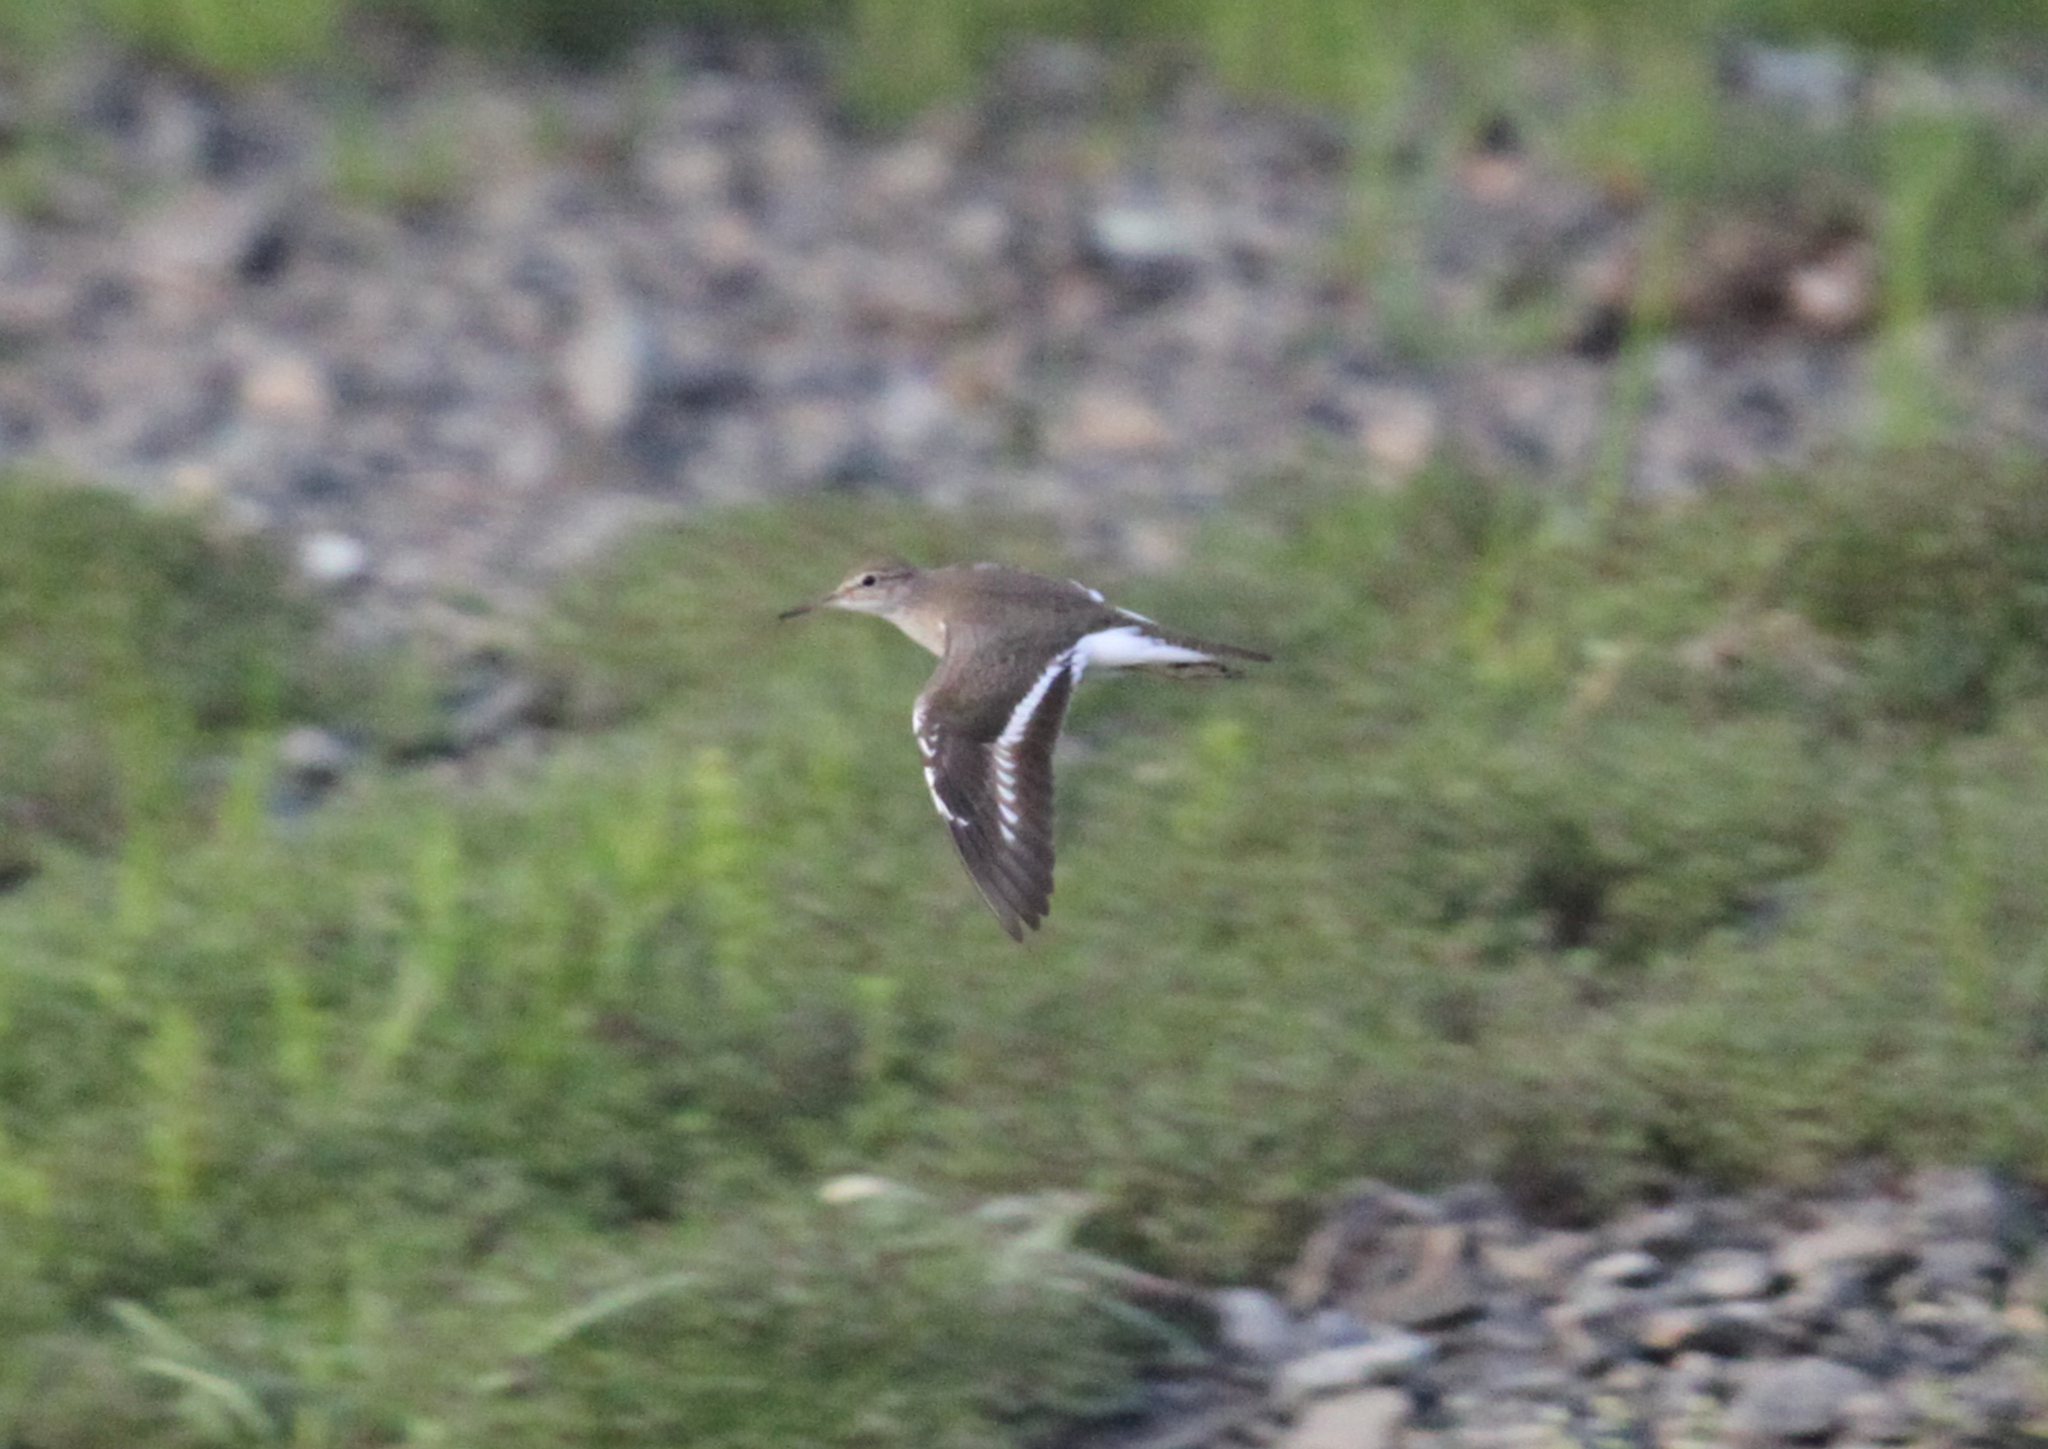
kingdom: Animalia
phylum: Chordata
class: Aves
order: Charadriiformes
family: Scolopacidae
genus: Actitis
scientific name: Actitis hypoleucos
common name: Common sandpiper
